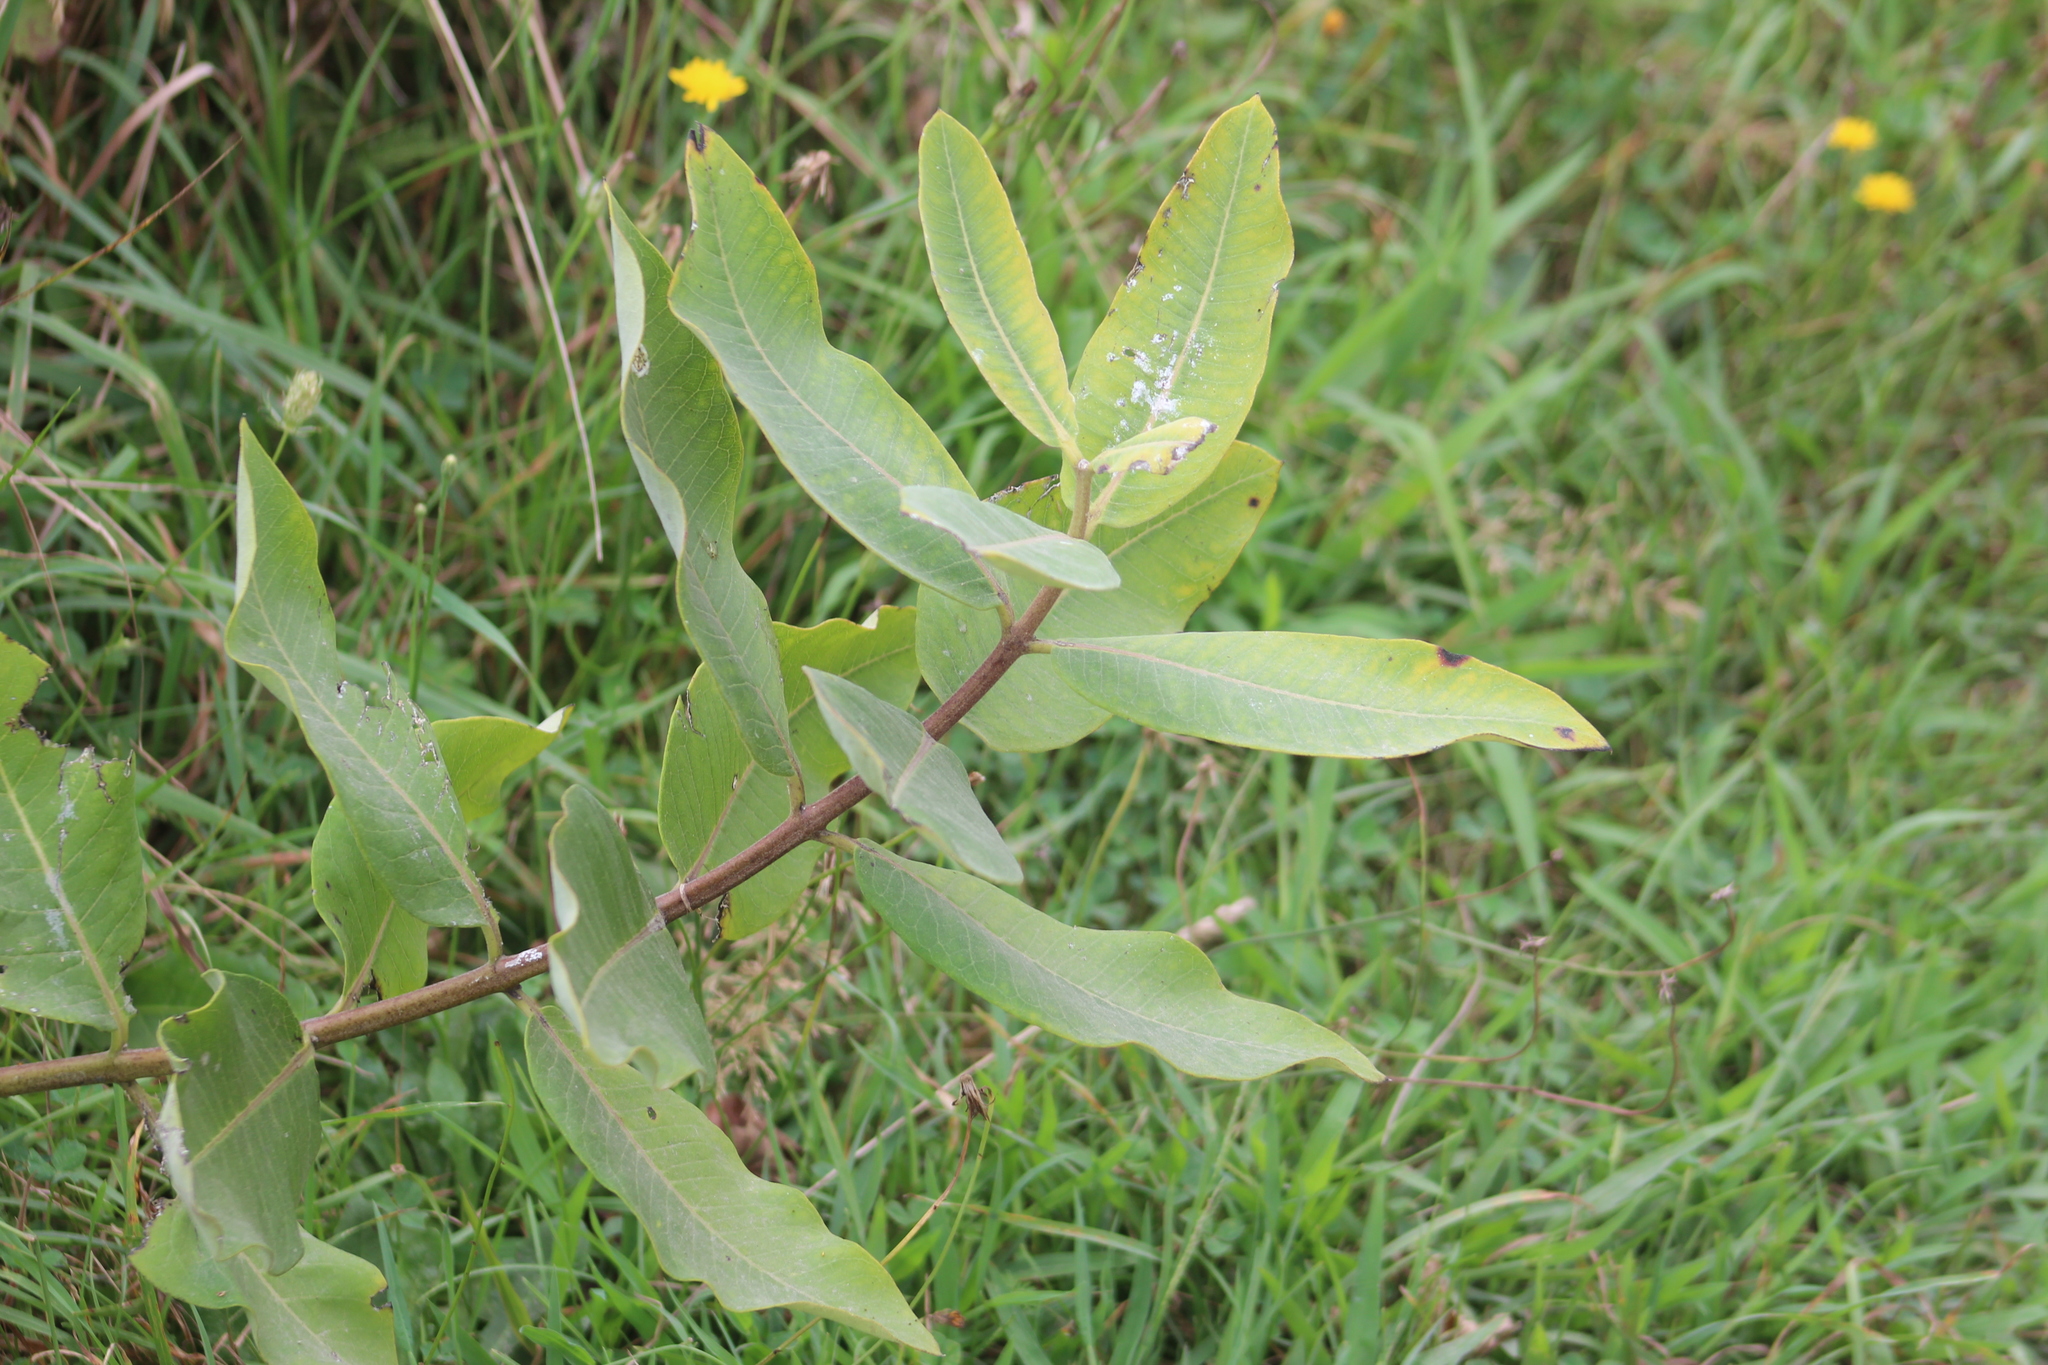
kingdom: Plantae
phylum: Tracheophyta
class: Magnoliopsida
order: Gentianales
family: Apocynaceae
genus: Asclepias
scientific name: Asclepias syriaca
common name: Common milkweed
